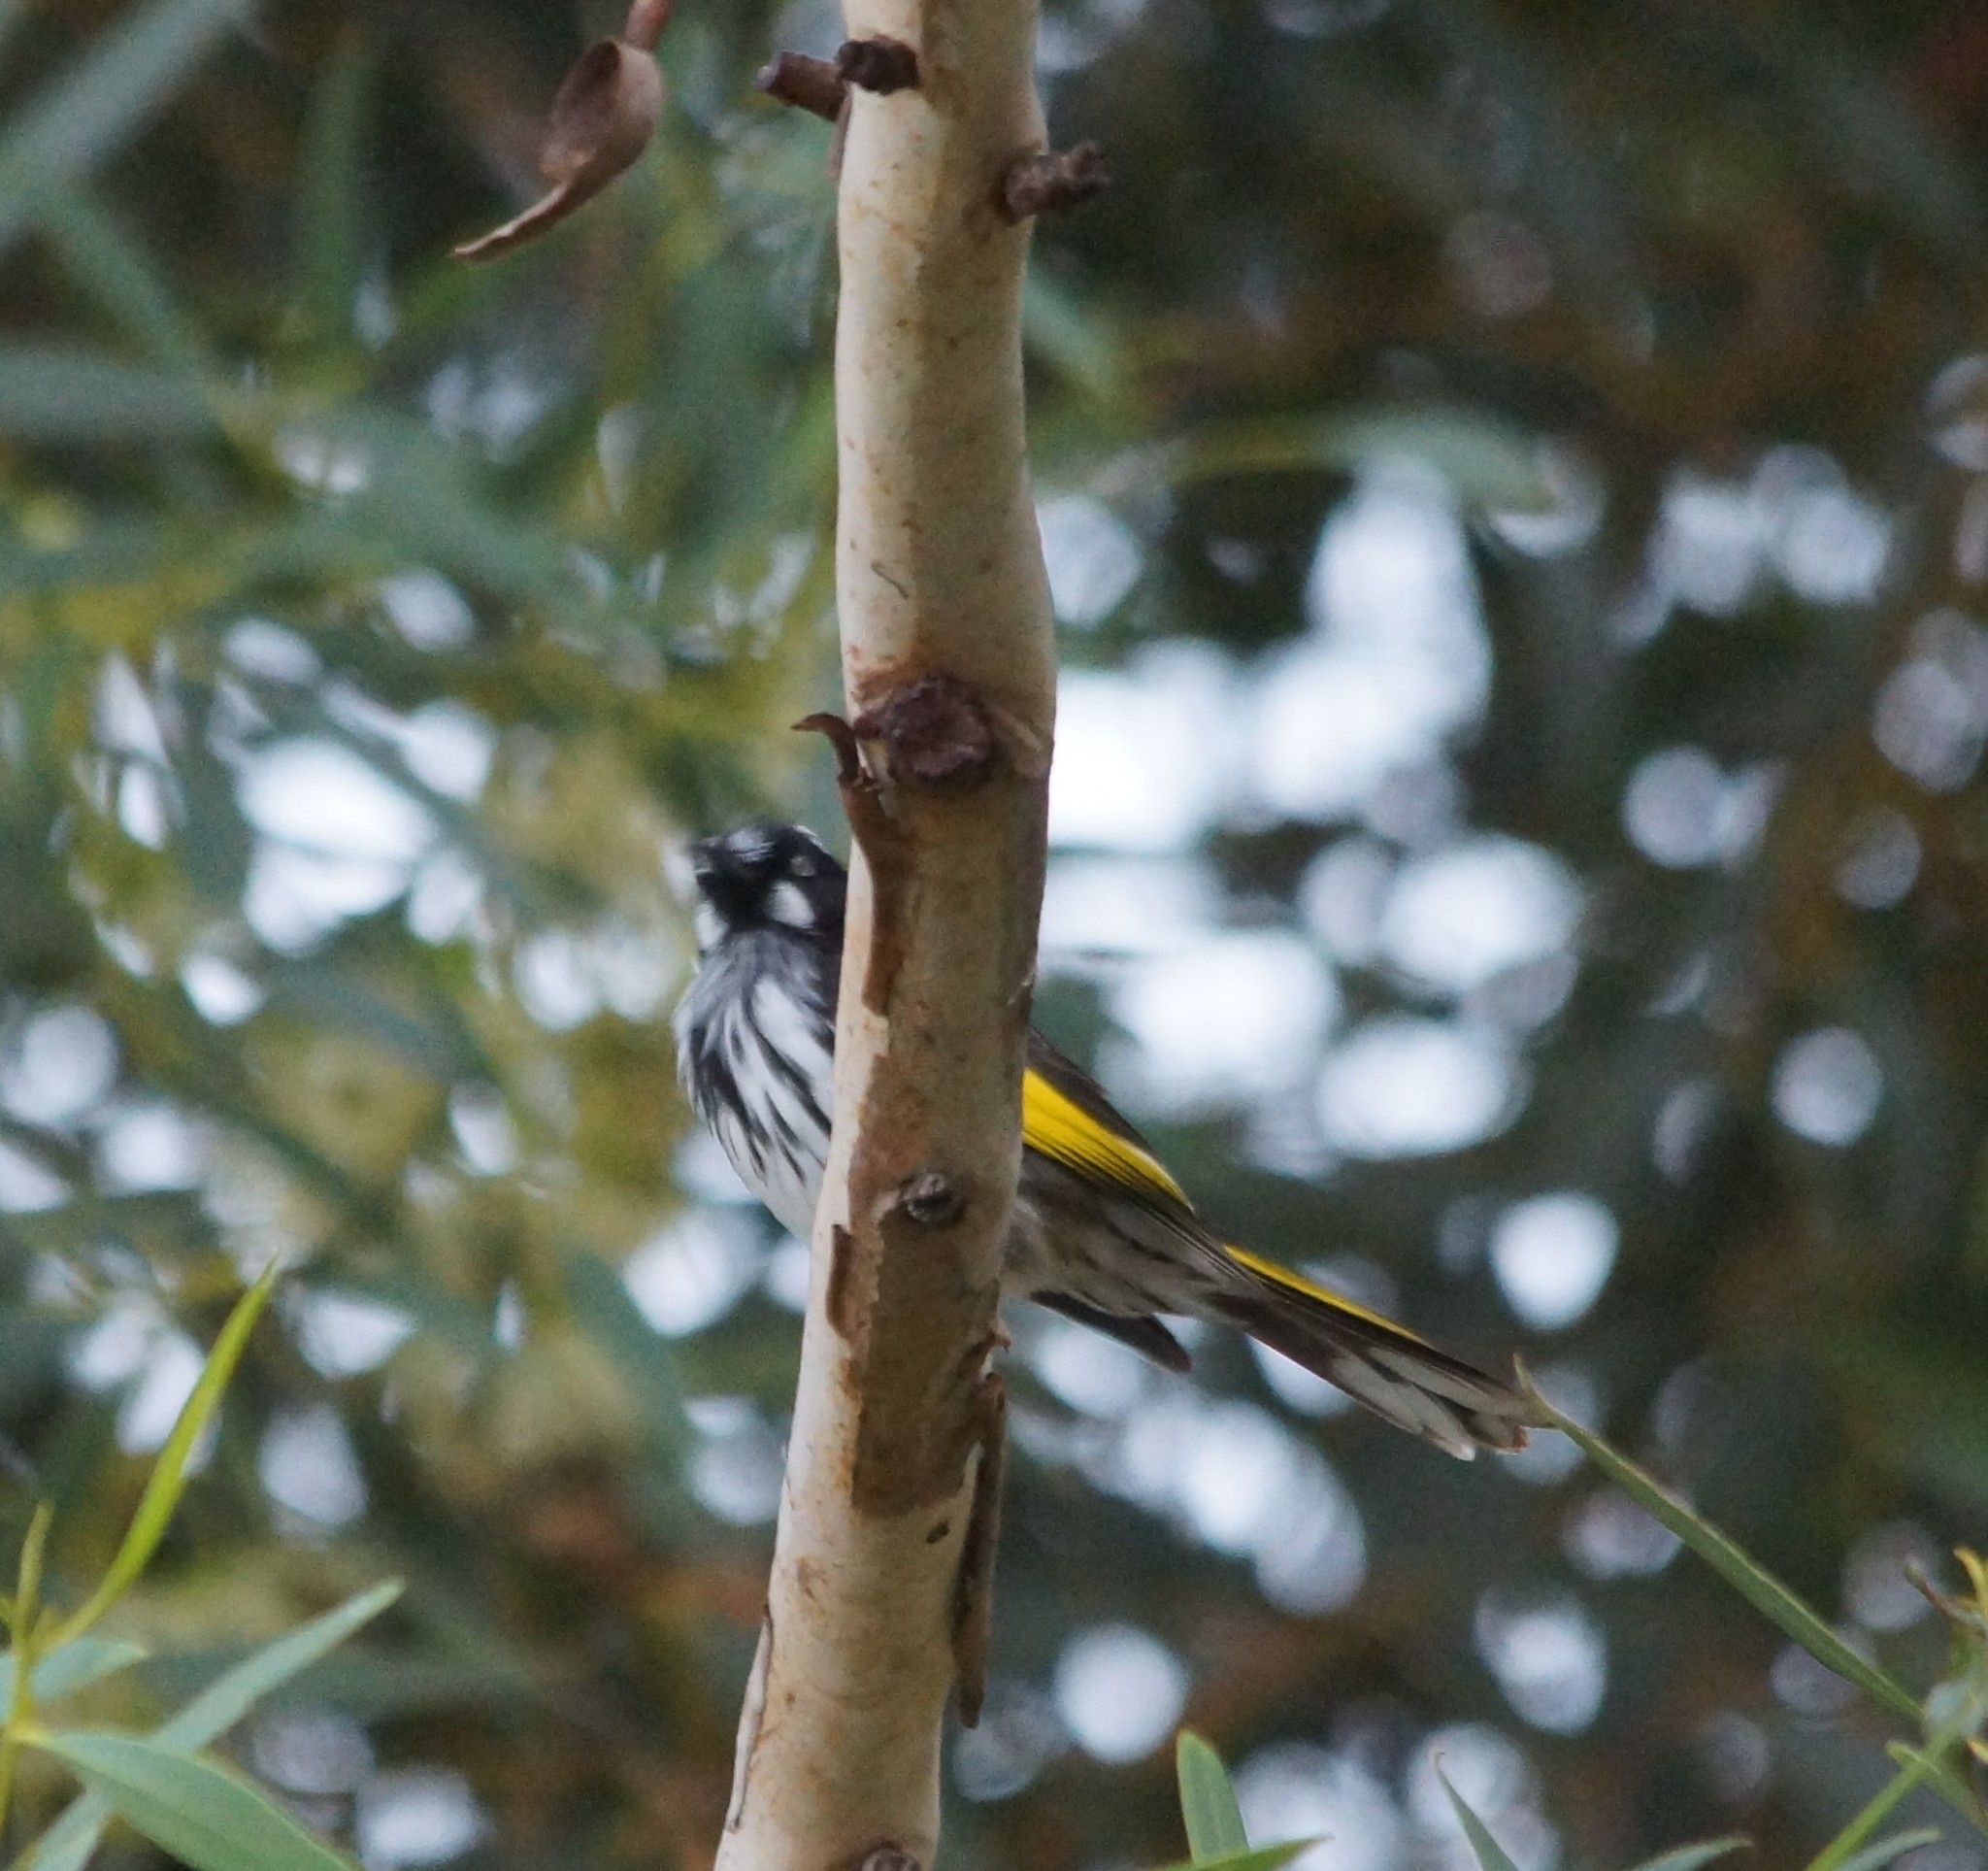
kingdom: Animalia
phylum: Chordata
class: Aves
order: Passeriformes
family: Meliphagidae
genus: Phylidonyris
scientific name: Phylidonyris novaehollandiae
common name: New holland honeyeater
